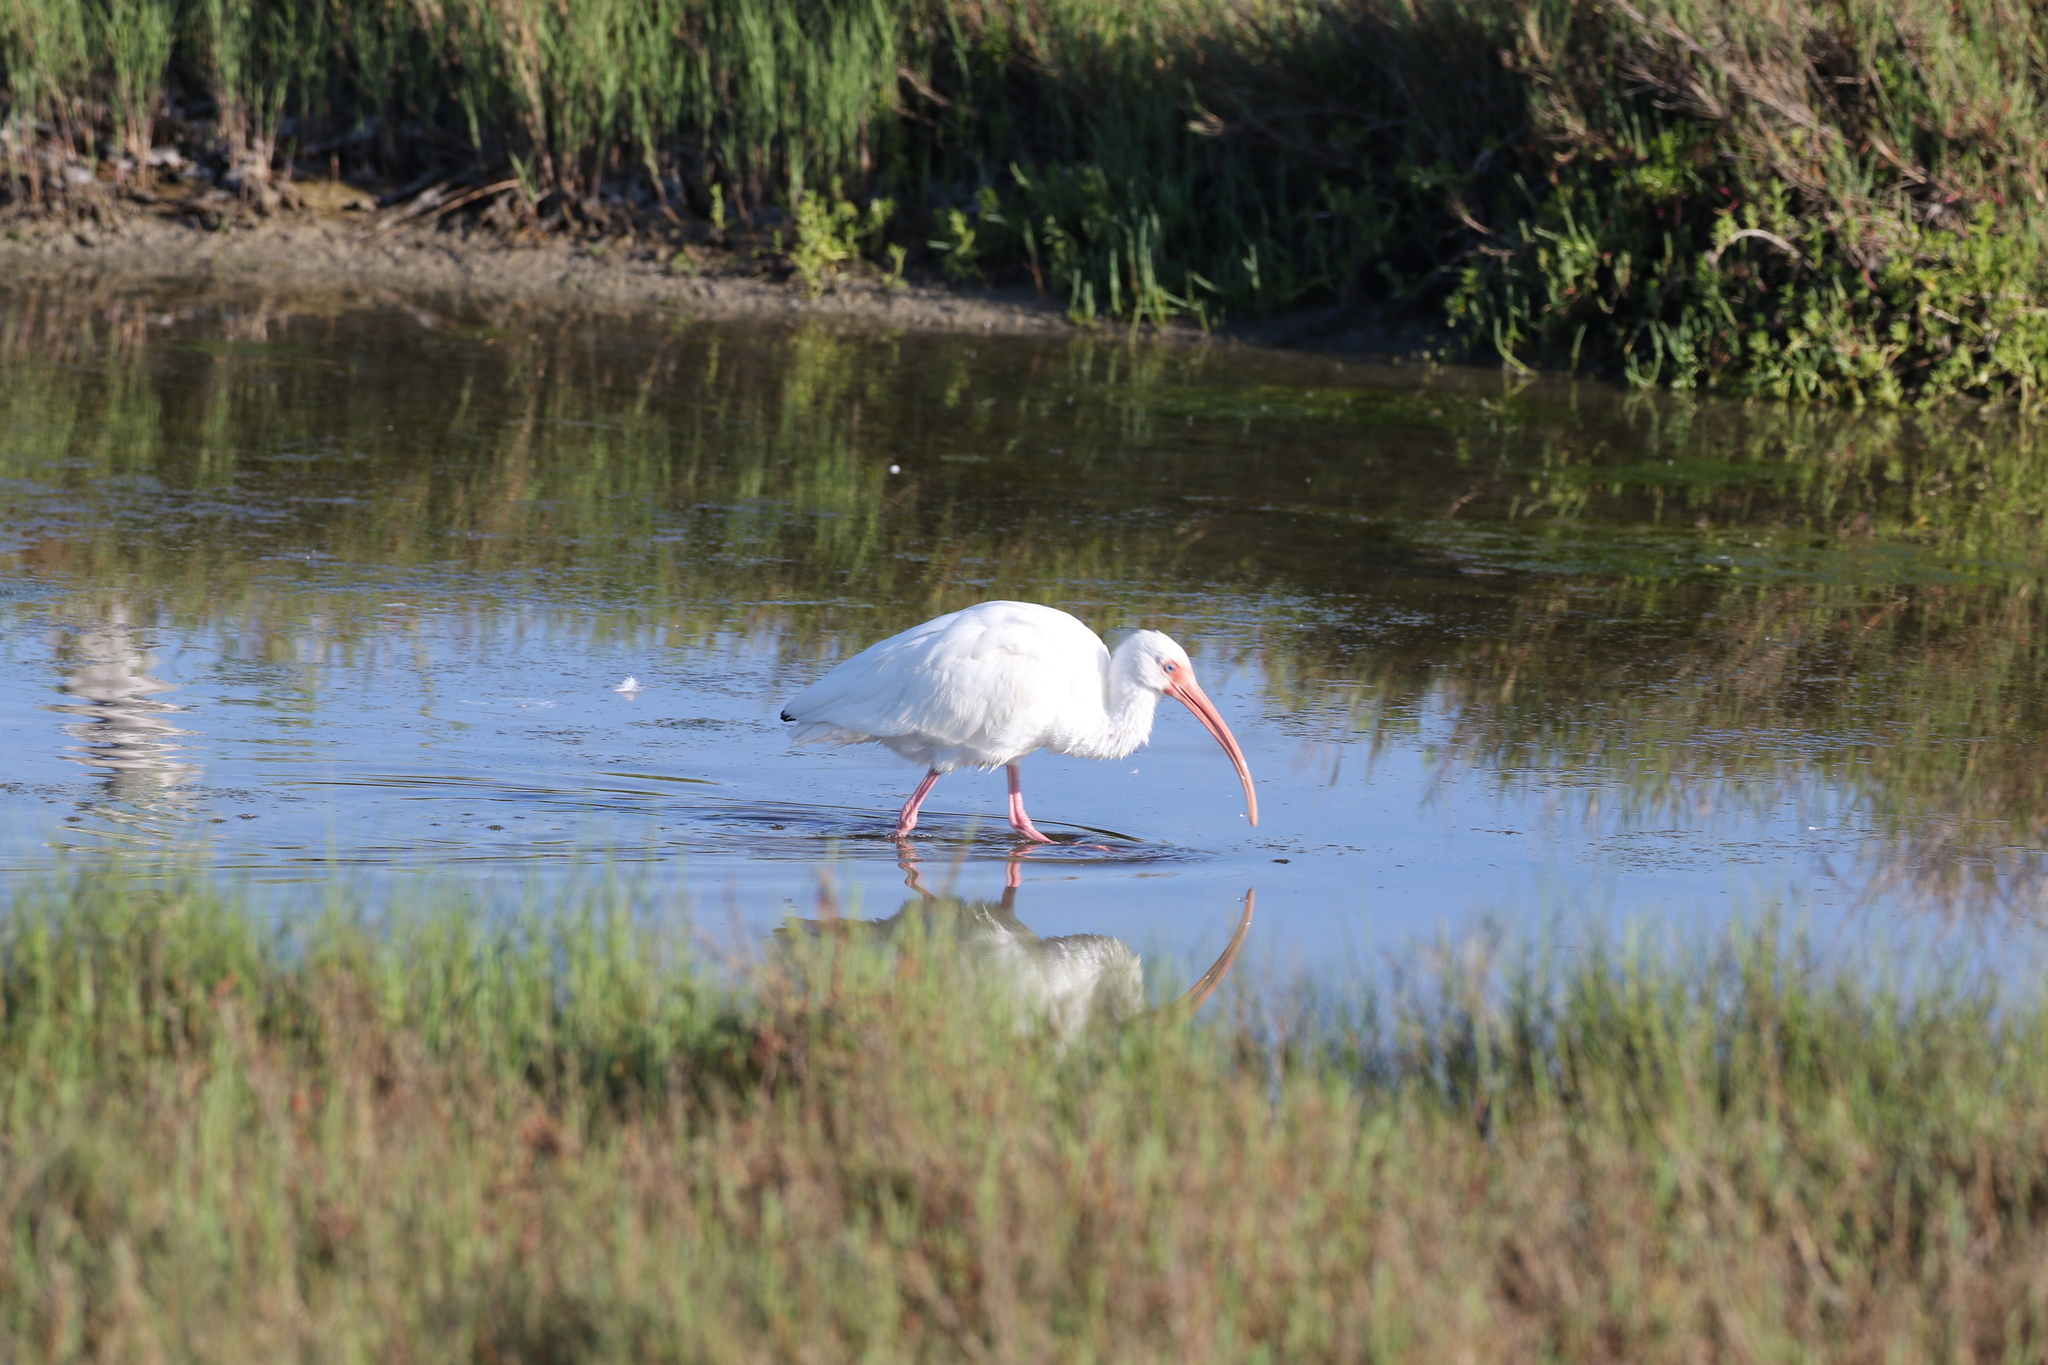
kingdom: Animalia
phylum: Chordata
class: Aves
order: Pelecaniformes
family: Threskiornithidae
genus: Eudocimus
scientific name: Eudocimus albus
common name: White ibis
